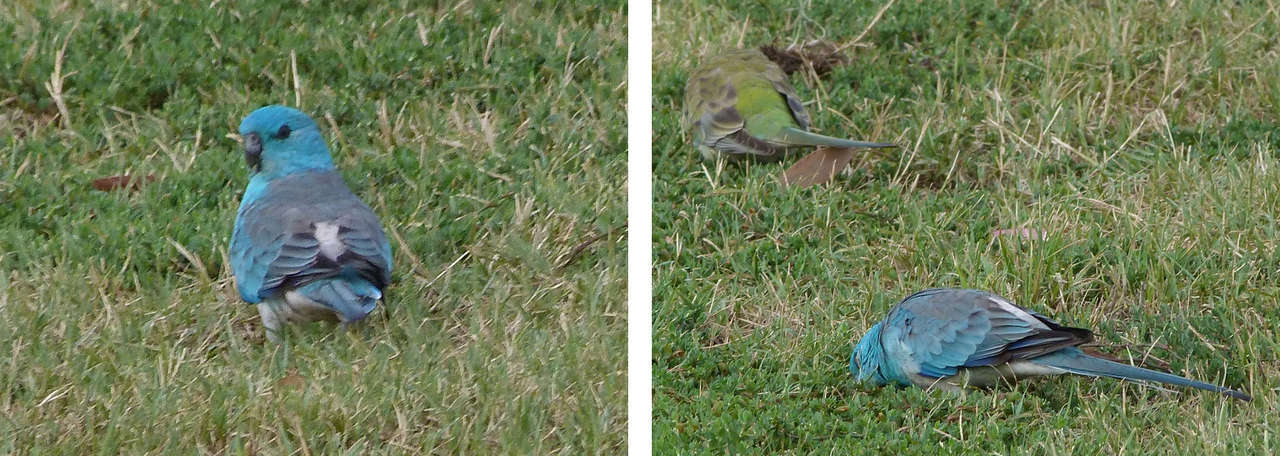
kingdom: Animalia
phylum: Chordata
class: Aves
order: Psittaciformes
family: Psittacidae
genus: Psephotus
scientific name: Psephotus haematonotus
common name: Red-rumped parrot
